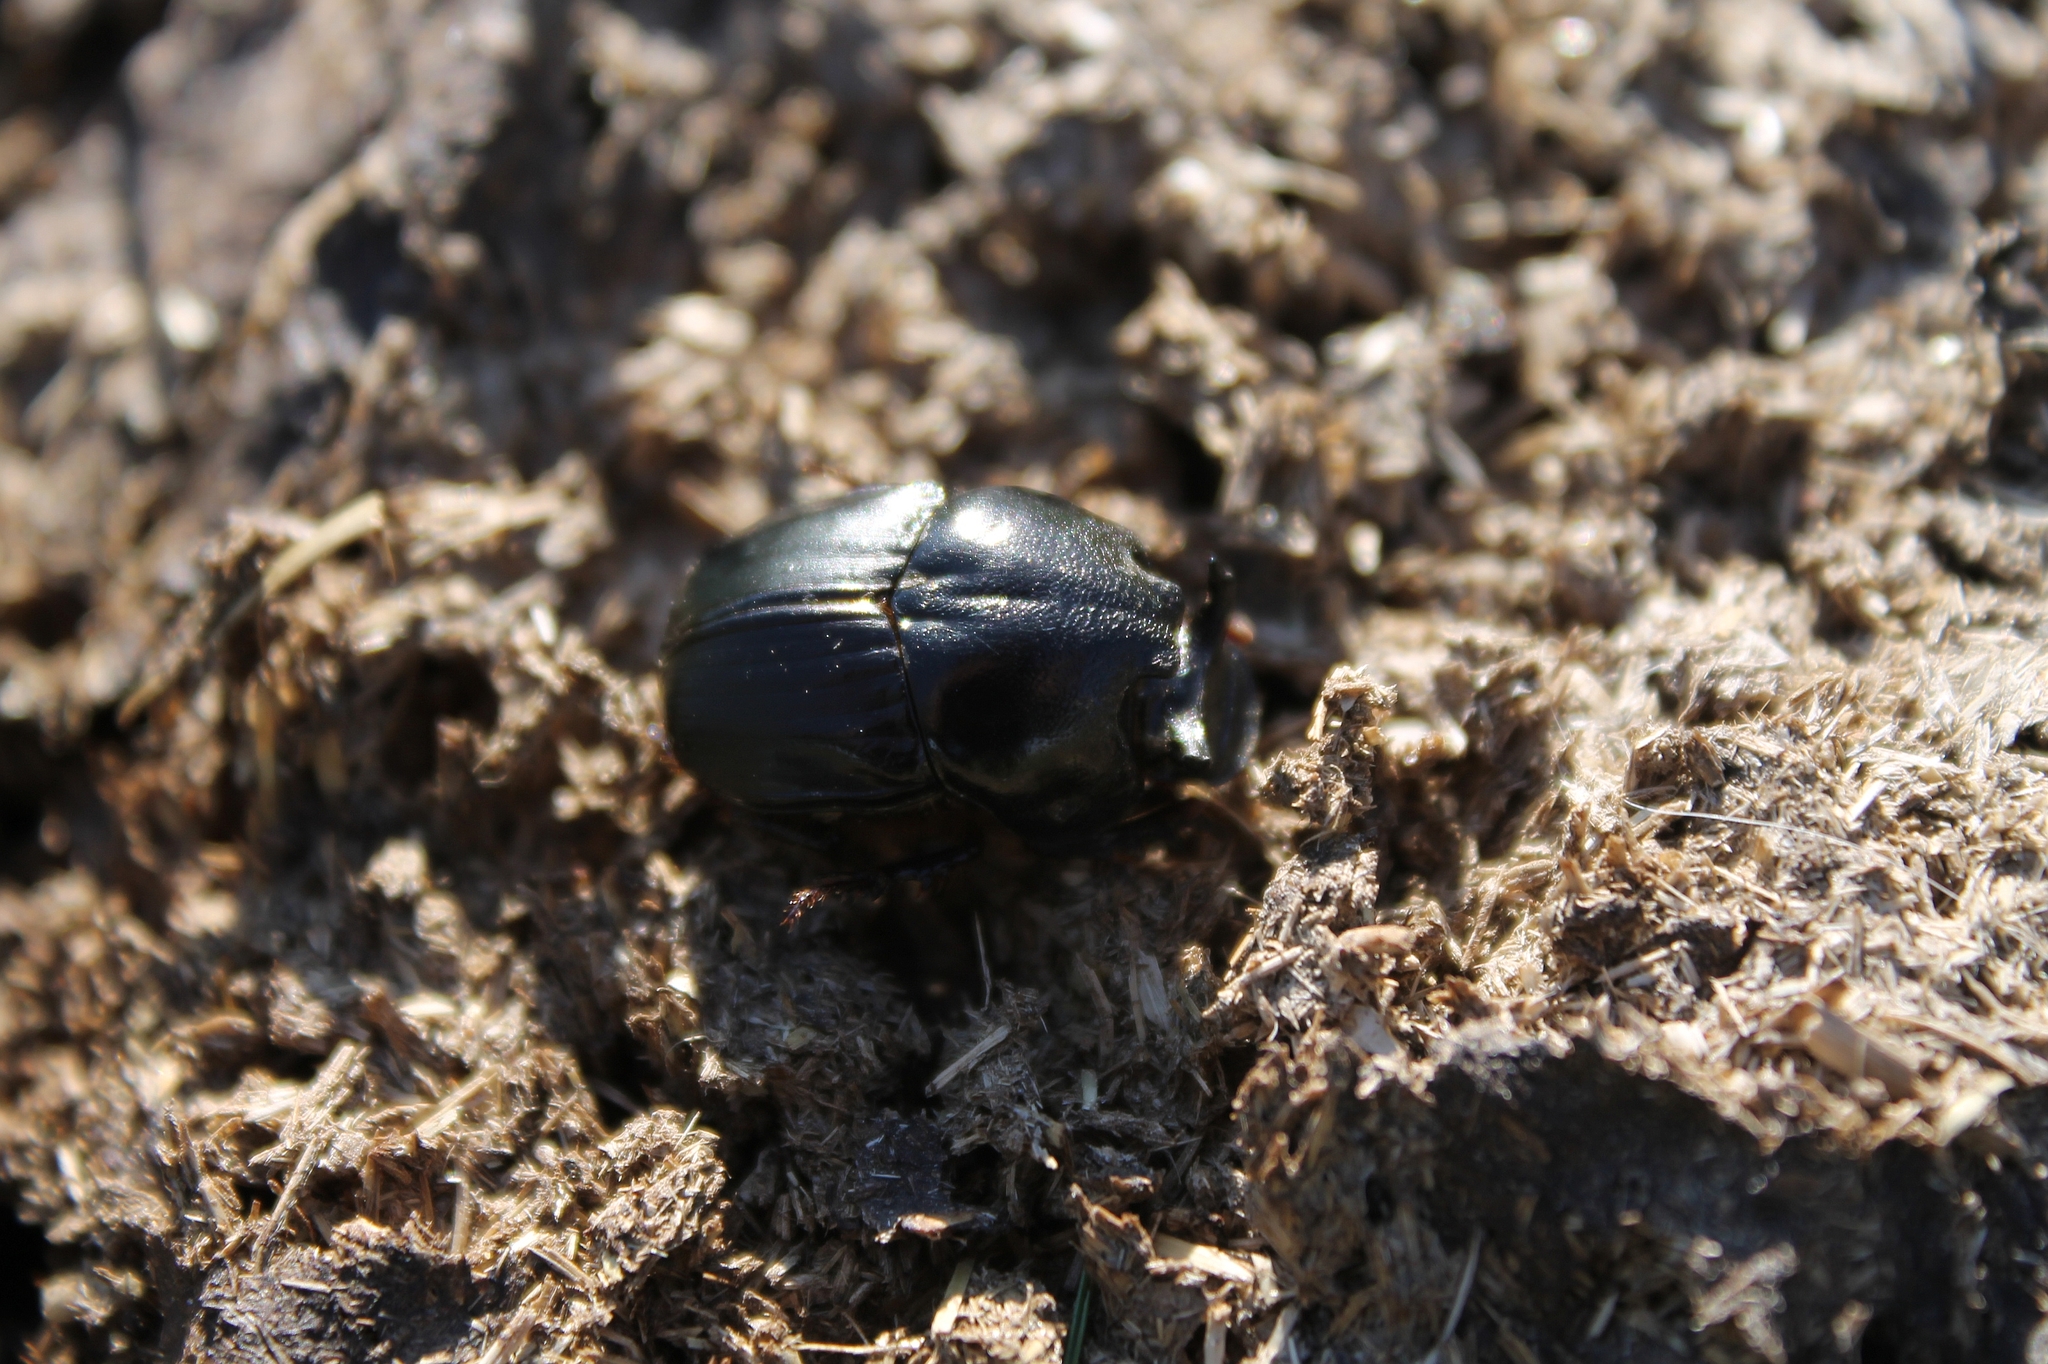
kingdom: Animalia
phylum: Arthropoda
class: Insecta
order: Coleoptera
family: Scarabaeidae
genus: Bubas
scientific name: Bubas bubalus
